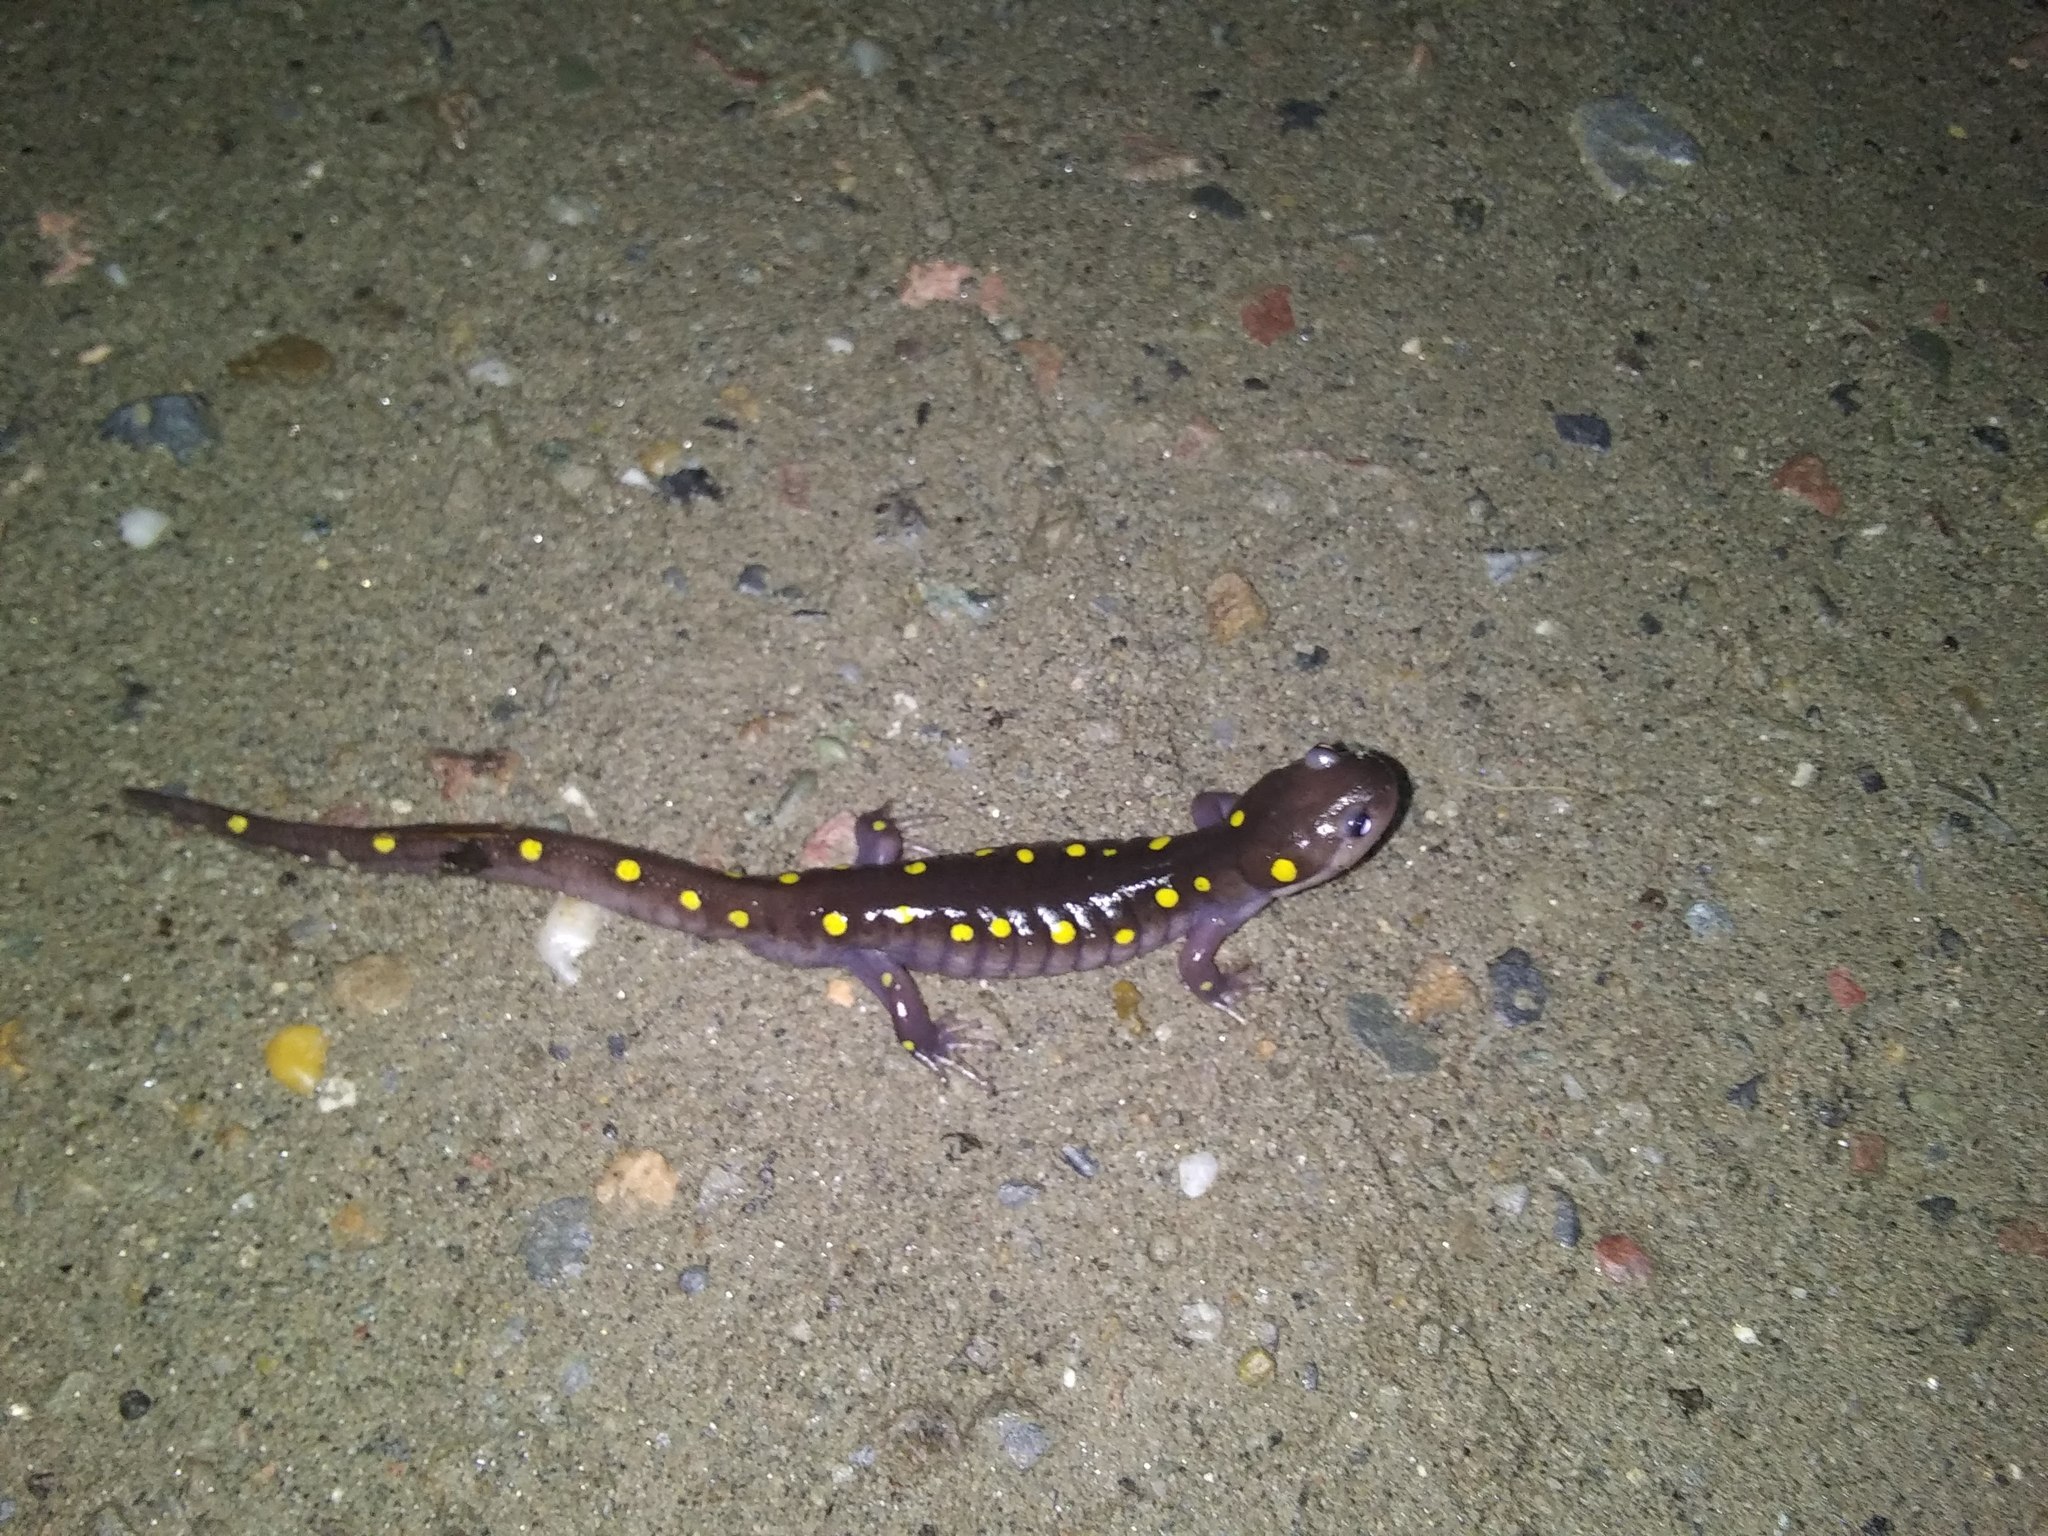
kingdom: Animalia
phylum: Chordata
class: Amphibia
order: Caudata
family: Ambystomatidae
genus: Ambystoma
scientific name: Ambystoma maculatum
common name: Spotted salamander
